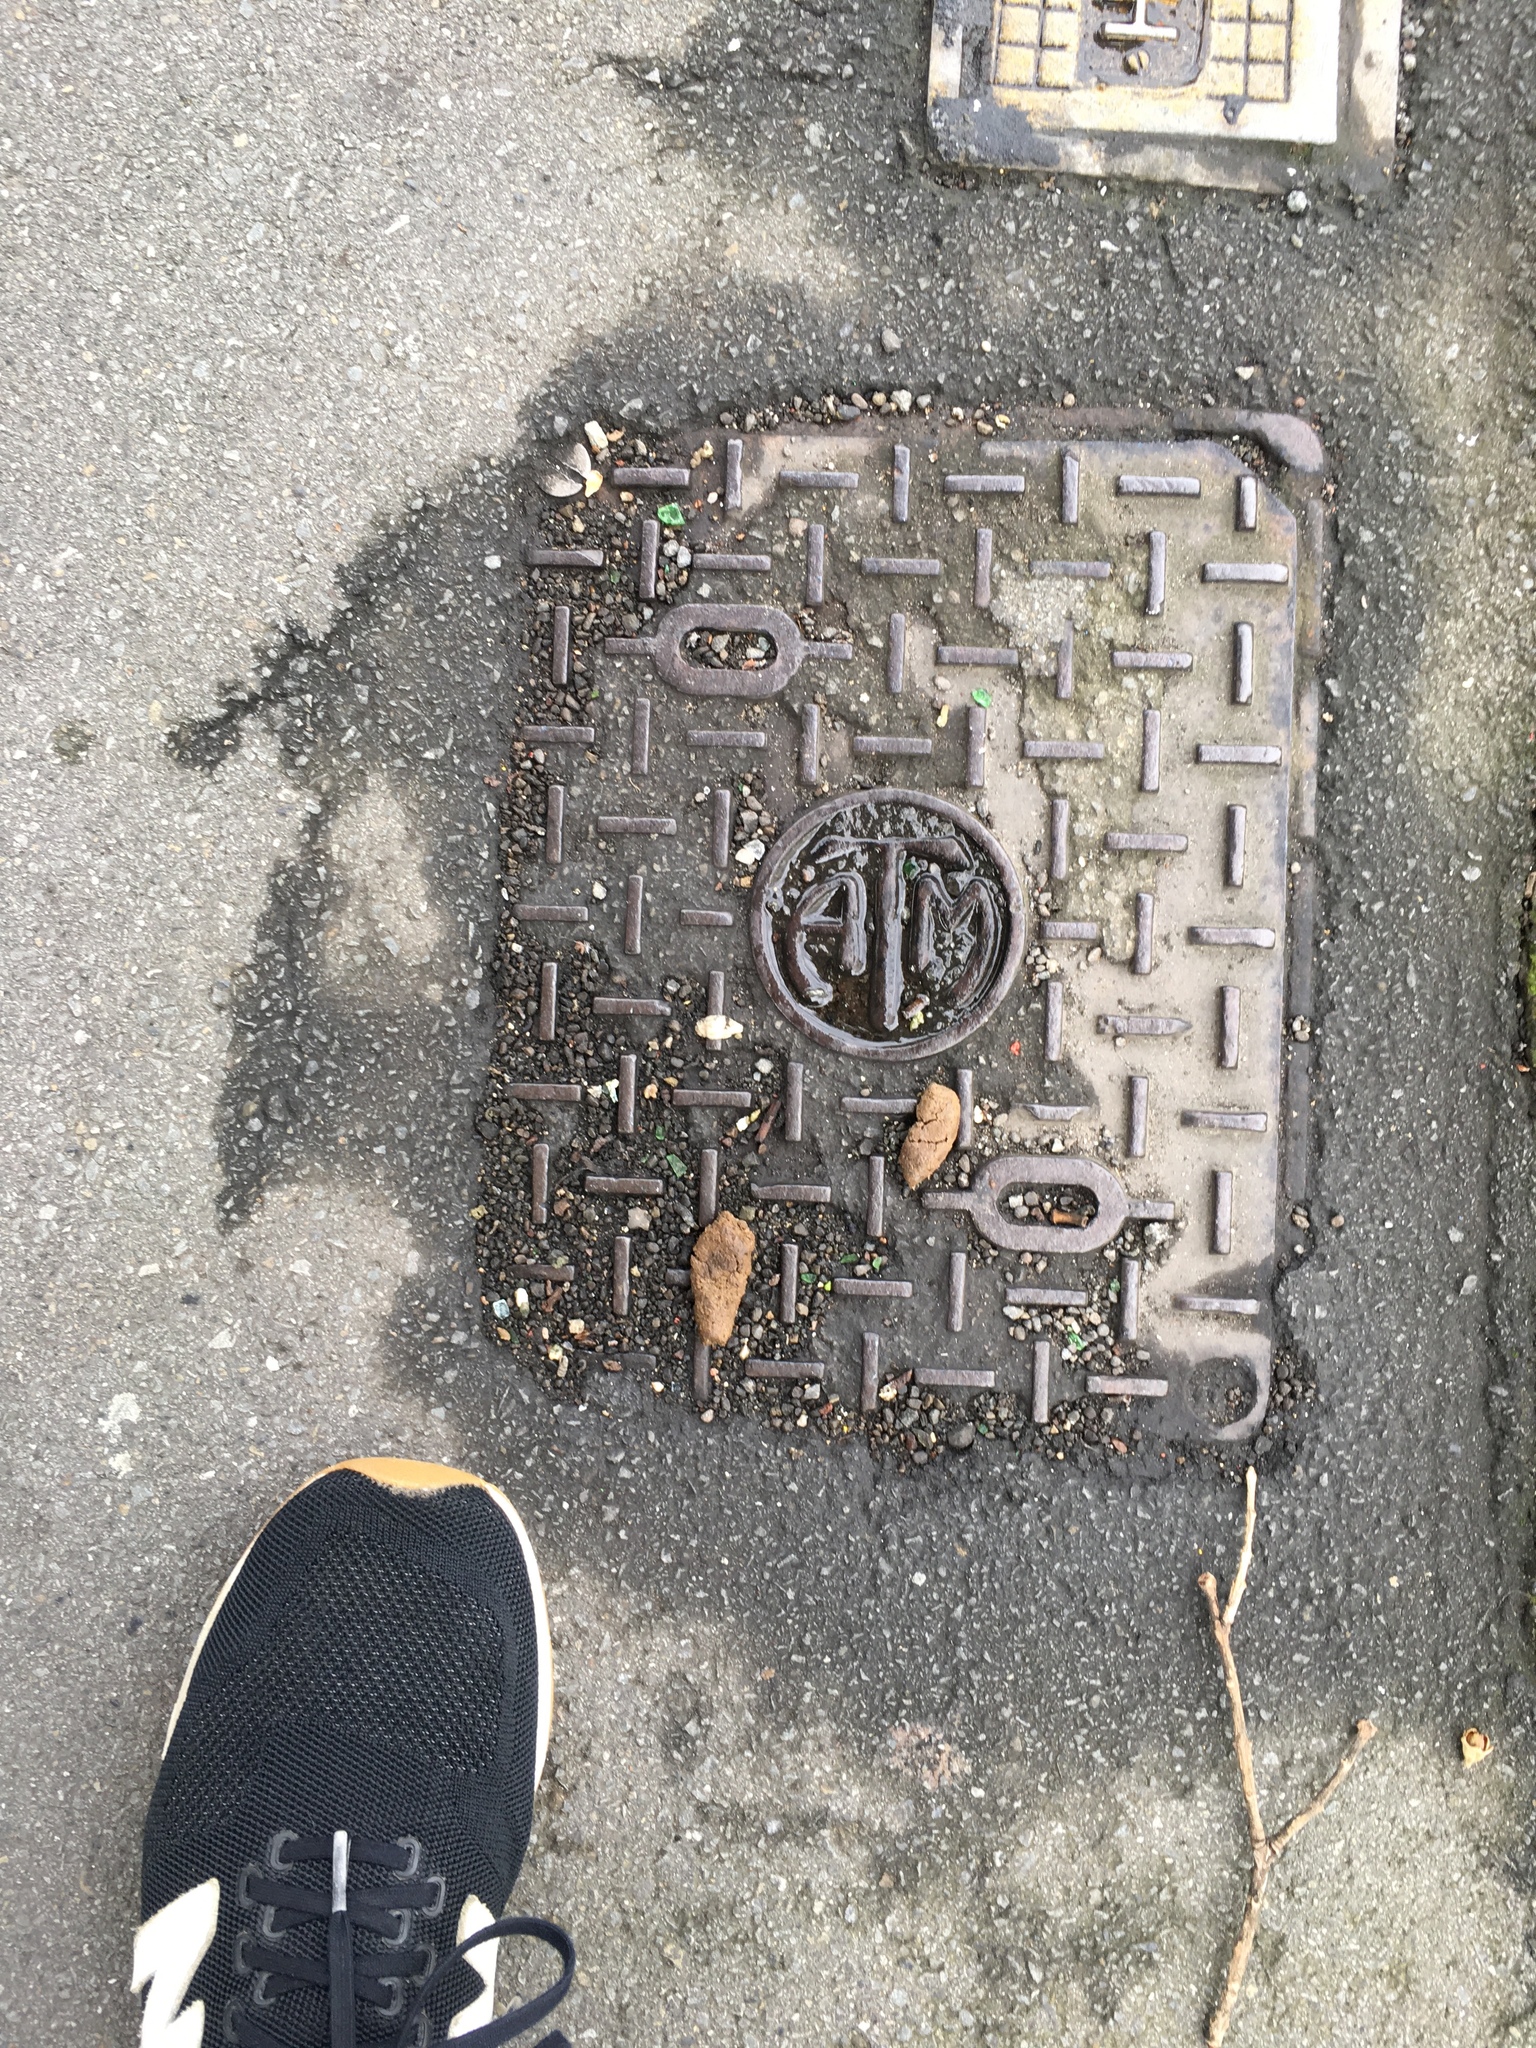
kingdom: Animalia
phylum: Chordata
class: Mammalia
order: Diprotodontia
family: Phalangeridae
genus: Trichosurus
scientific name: Trichosurus vulpecula
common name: Common brushtail
